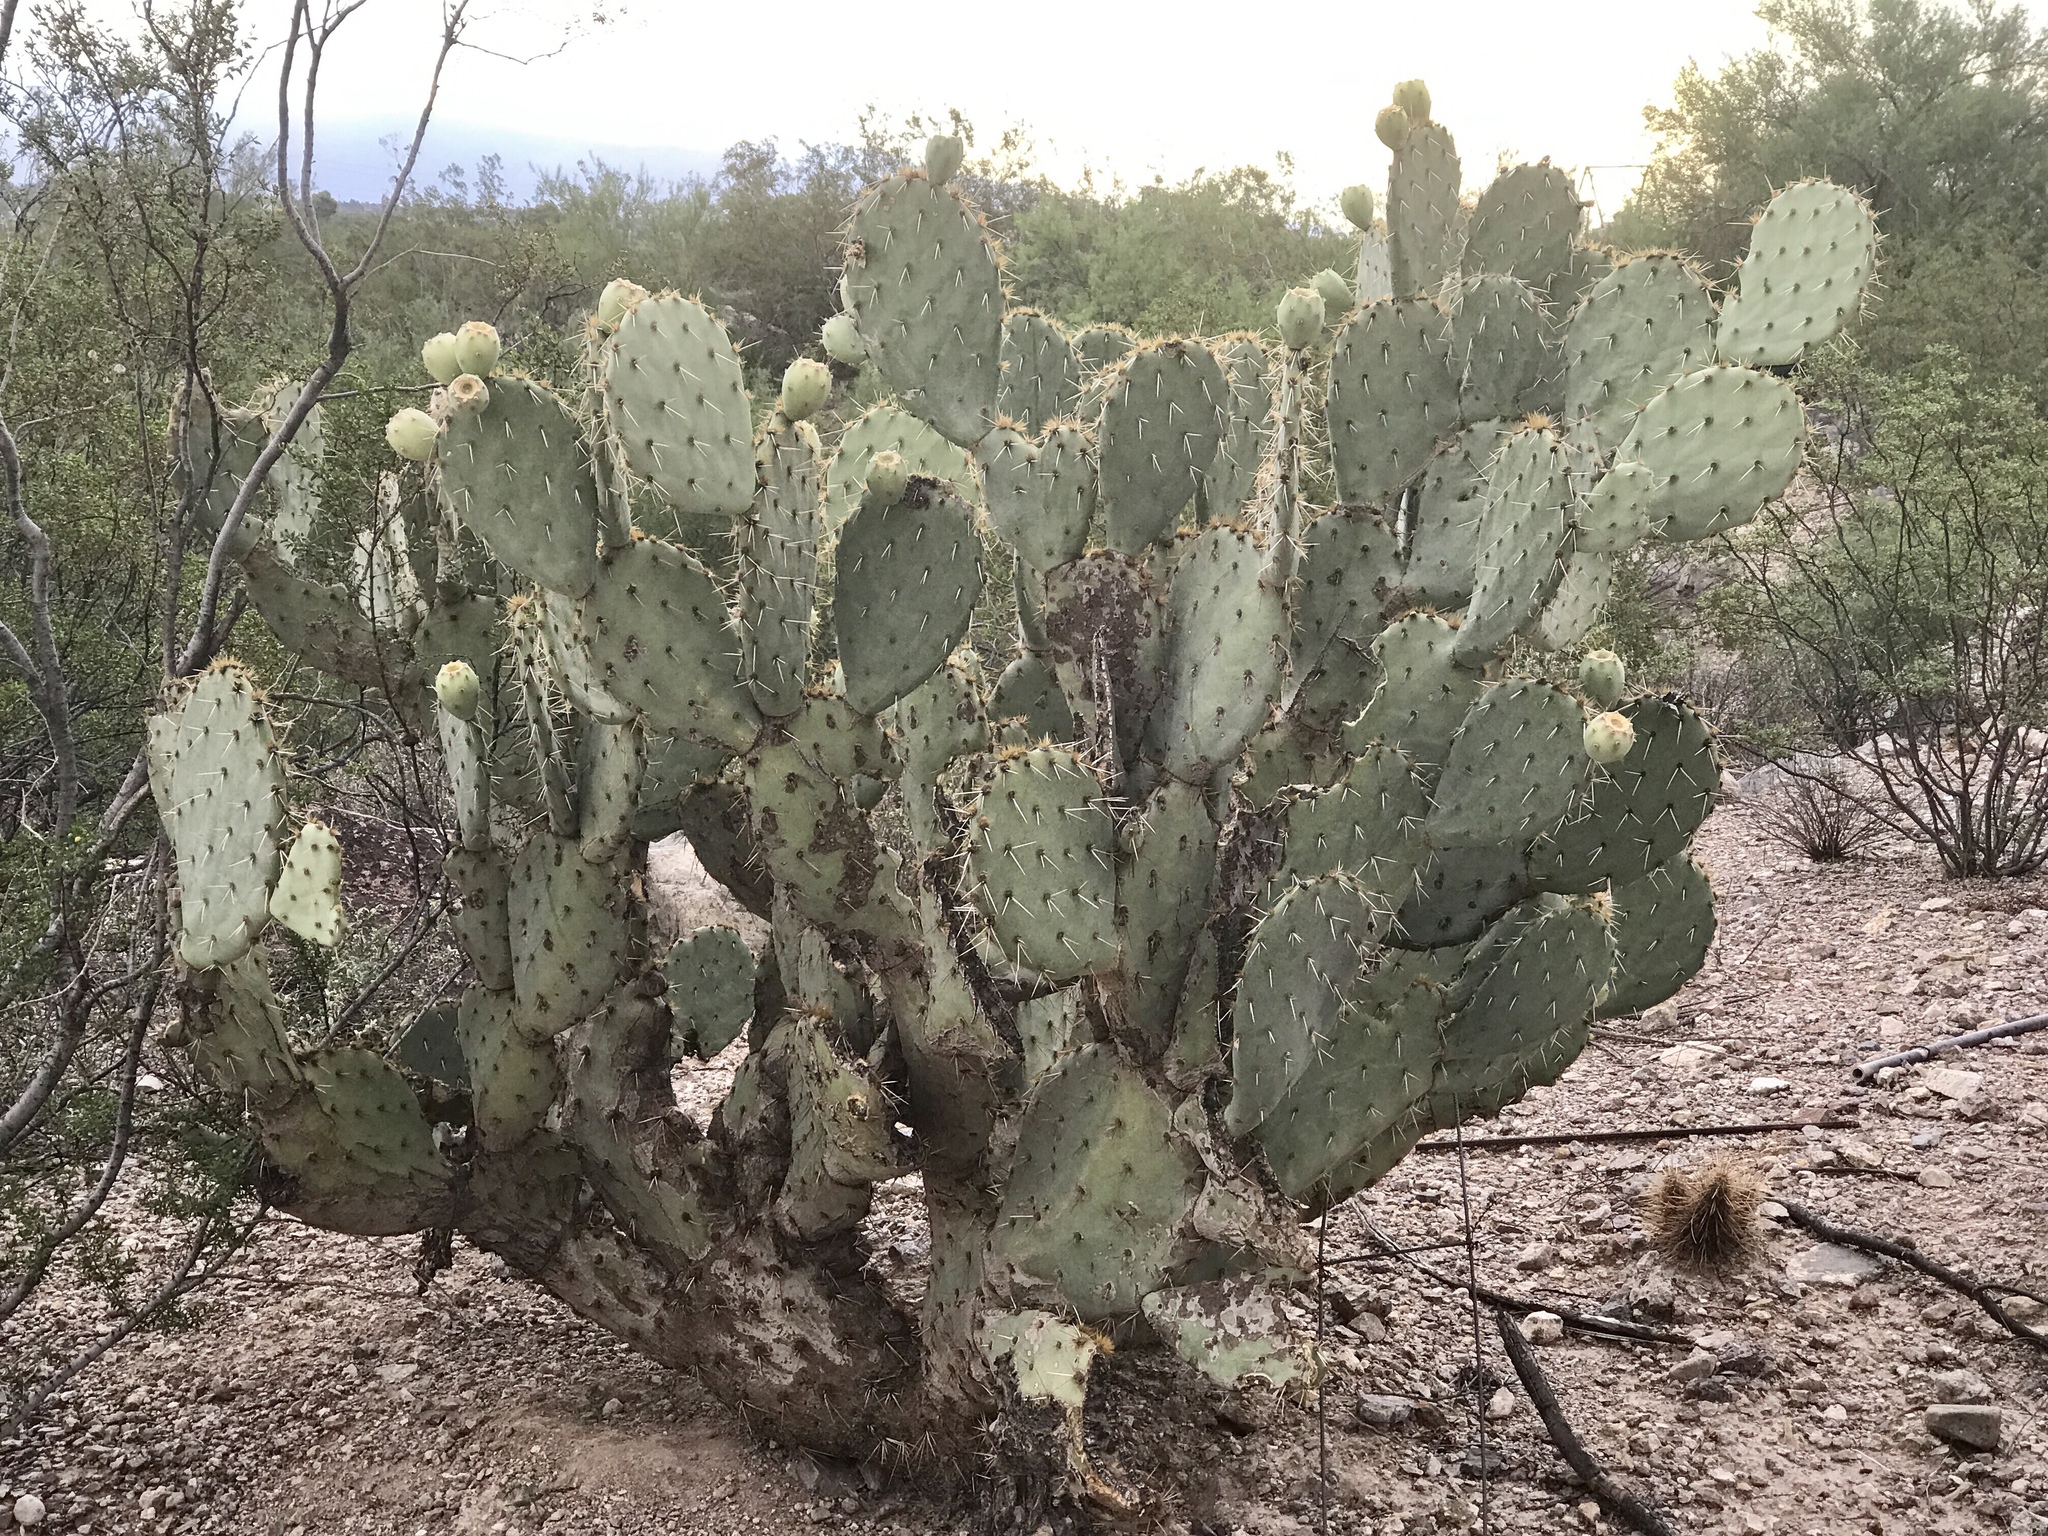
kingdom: Plantae
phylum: Tracheophyta
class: Magnoliopsida
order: Caryophyllales
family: Cactaceae
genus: Opuntia
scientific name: Opuntia engelmannii
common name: Cactus-apple
